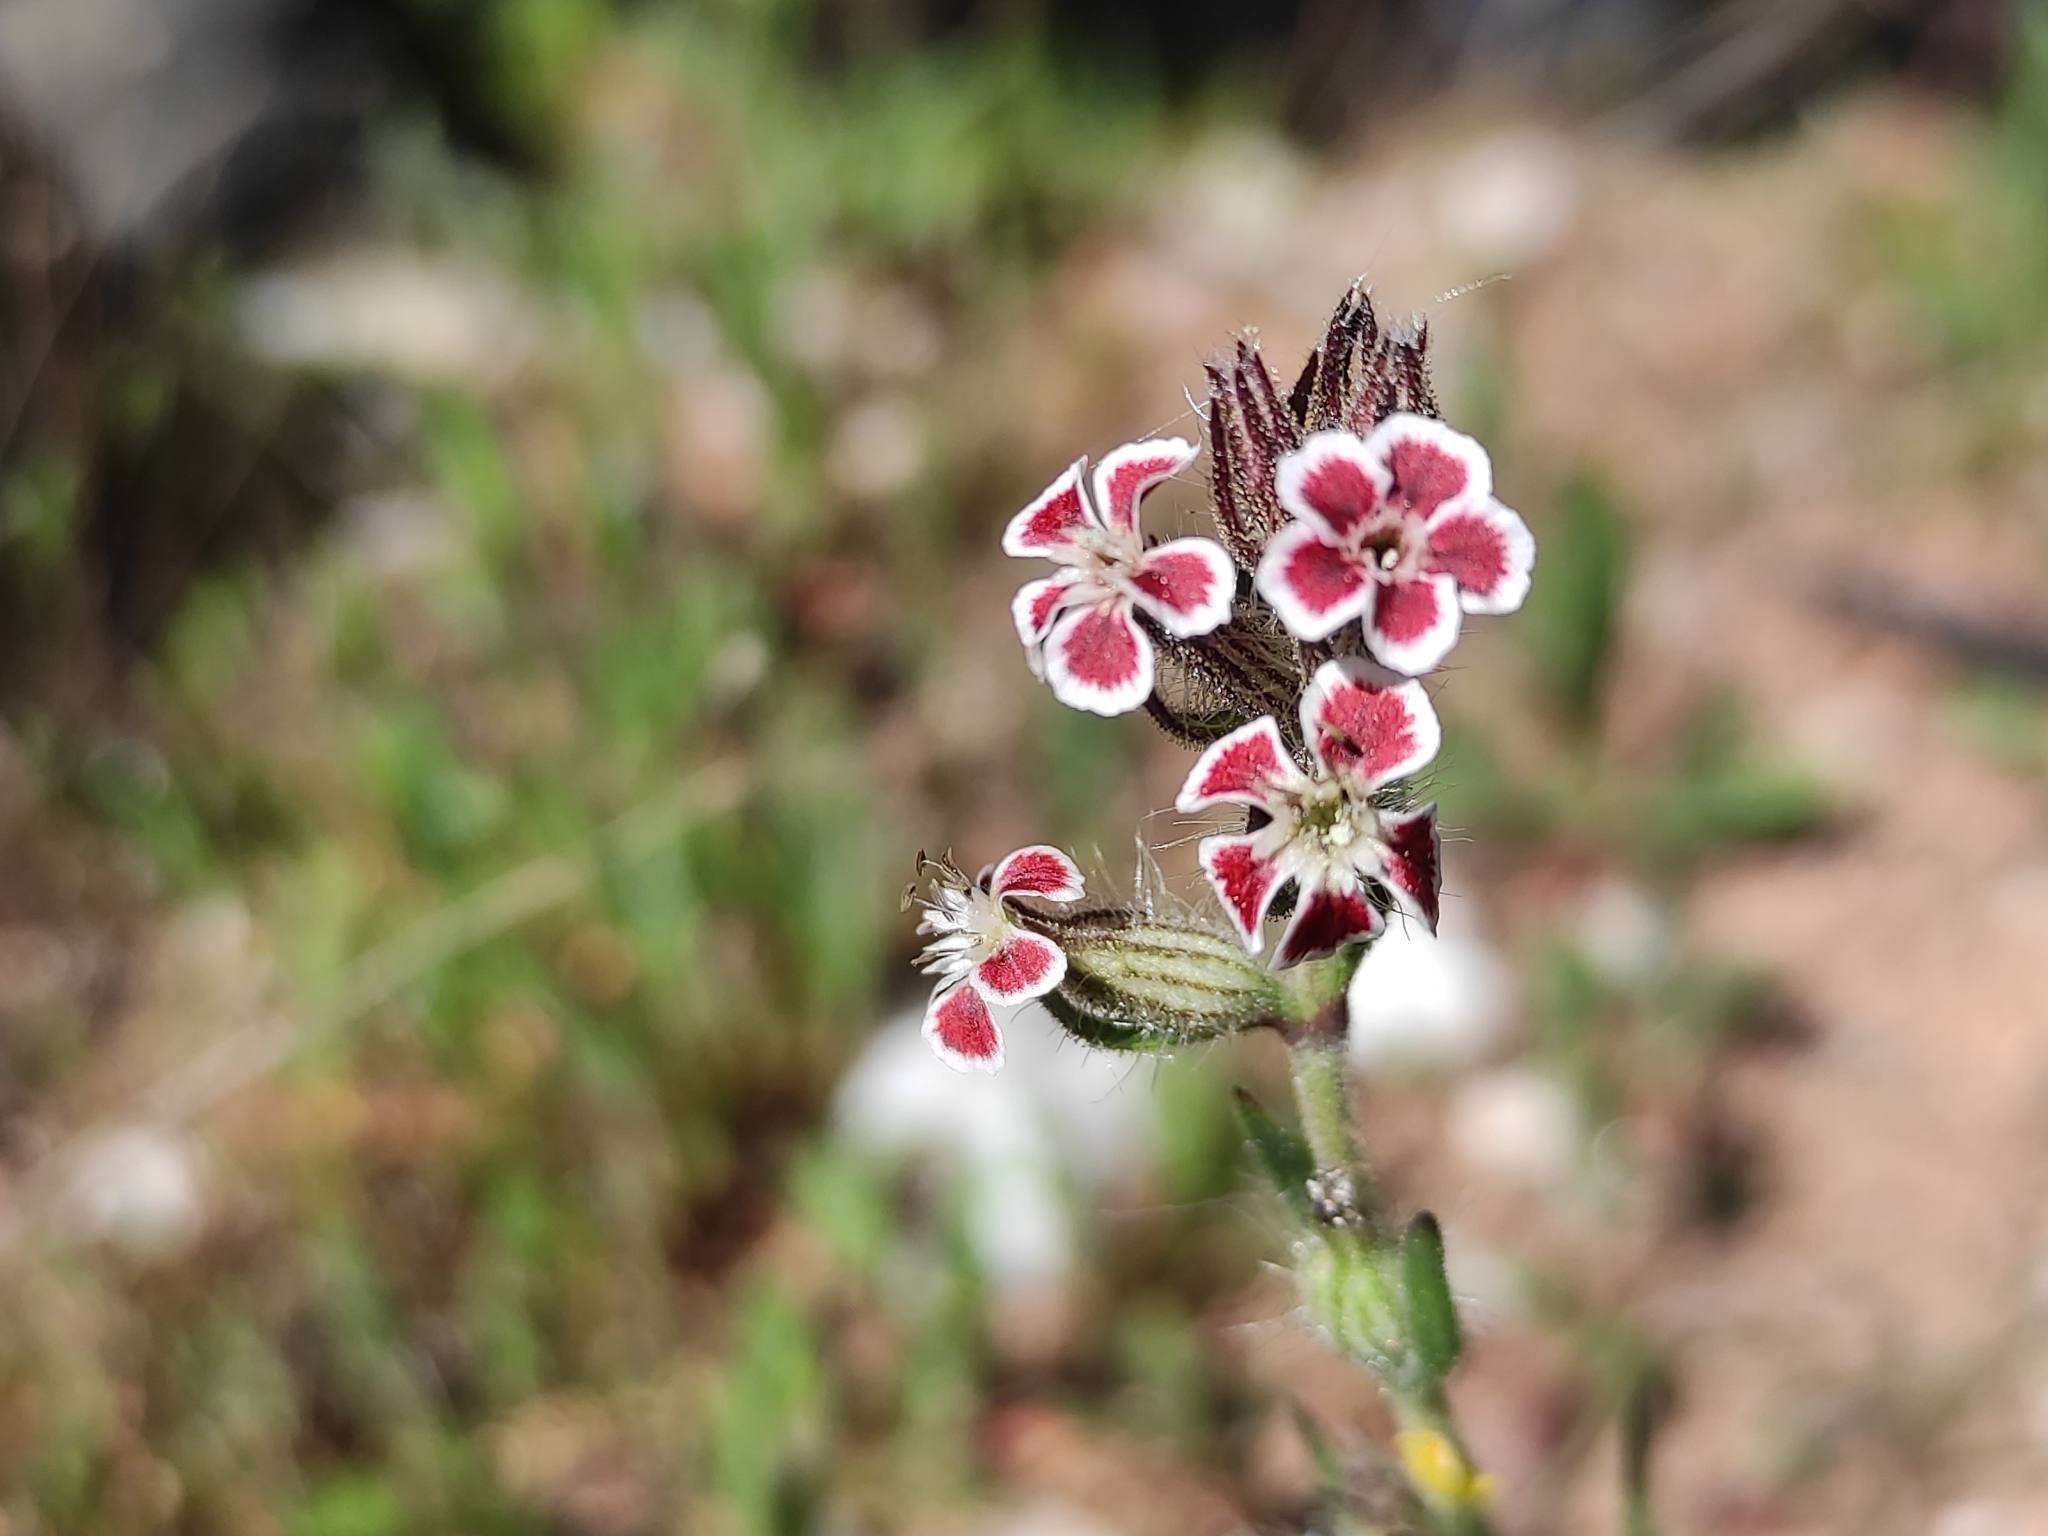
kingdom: Plantae
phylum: Tracheophyta
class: Magnoliopsida
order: Caryophyllales
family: Caryophyllaceae
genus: Silene
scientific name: Silene gallica
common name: Small-flowered catchfly
